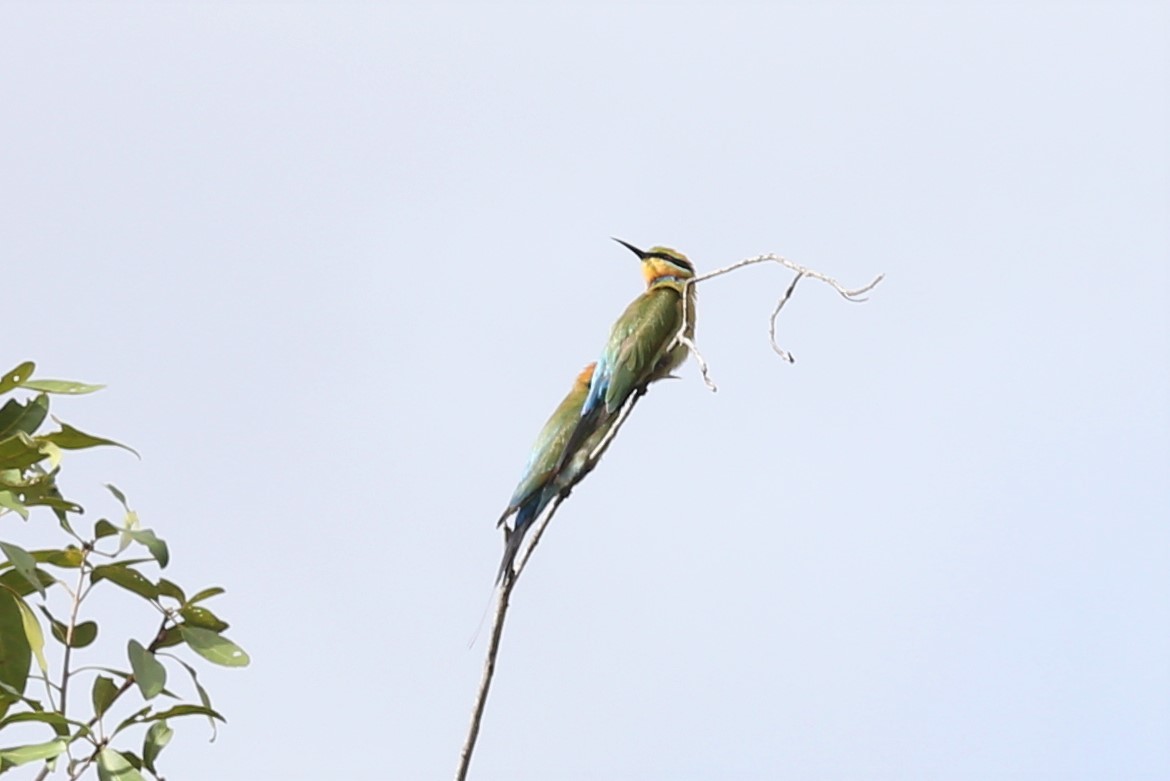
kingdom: Animalia
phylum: Chordata
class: Aves
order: Coraciiformes
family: Meropidae
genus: Merops
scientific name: Merops ornatus
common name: Rainbow bee-eater
